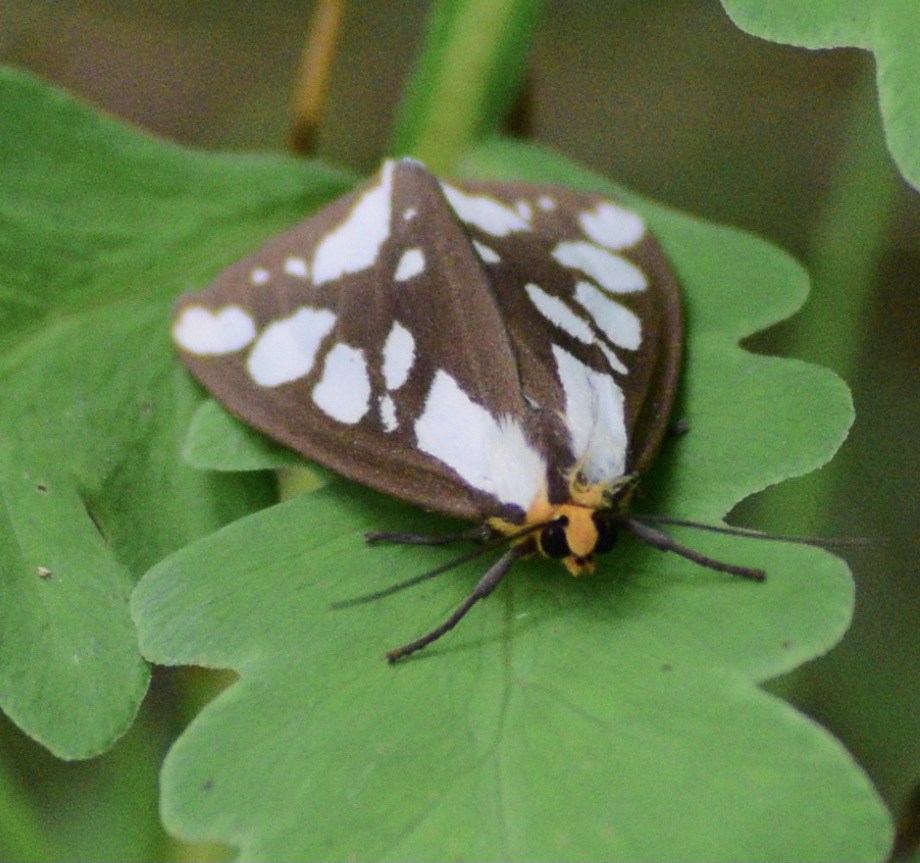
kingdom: Animalia
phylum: Arthropoda
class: Insecta
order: Lepidoptera
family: Erebidae
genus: Haploa
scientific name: Haploa confusa
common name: Confused haploa moth
